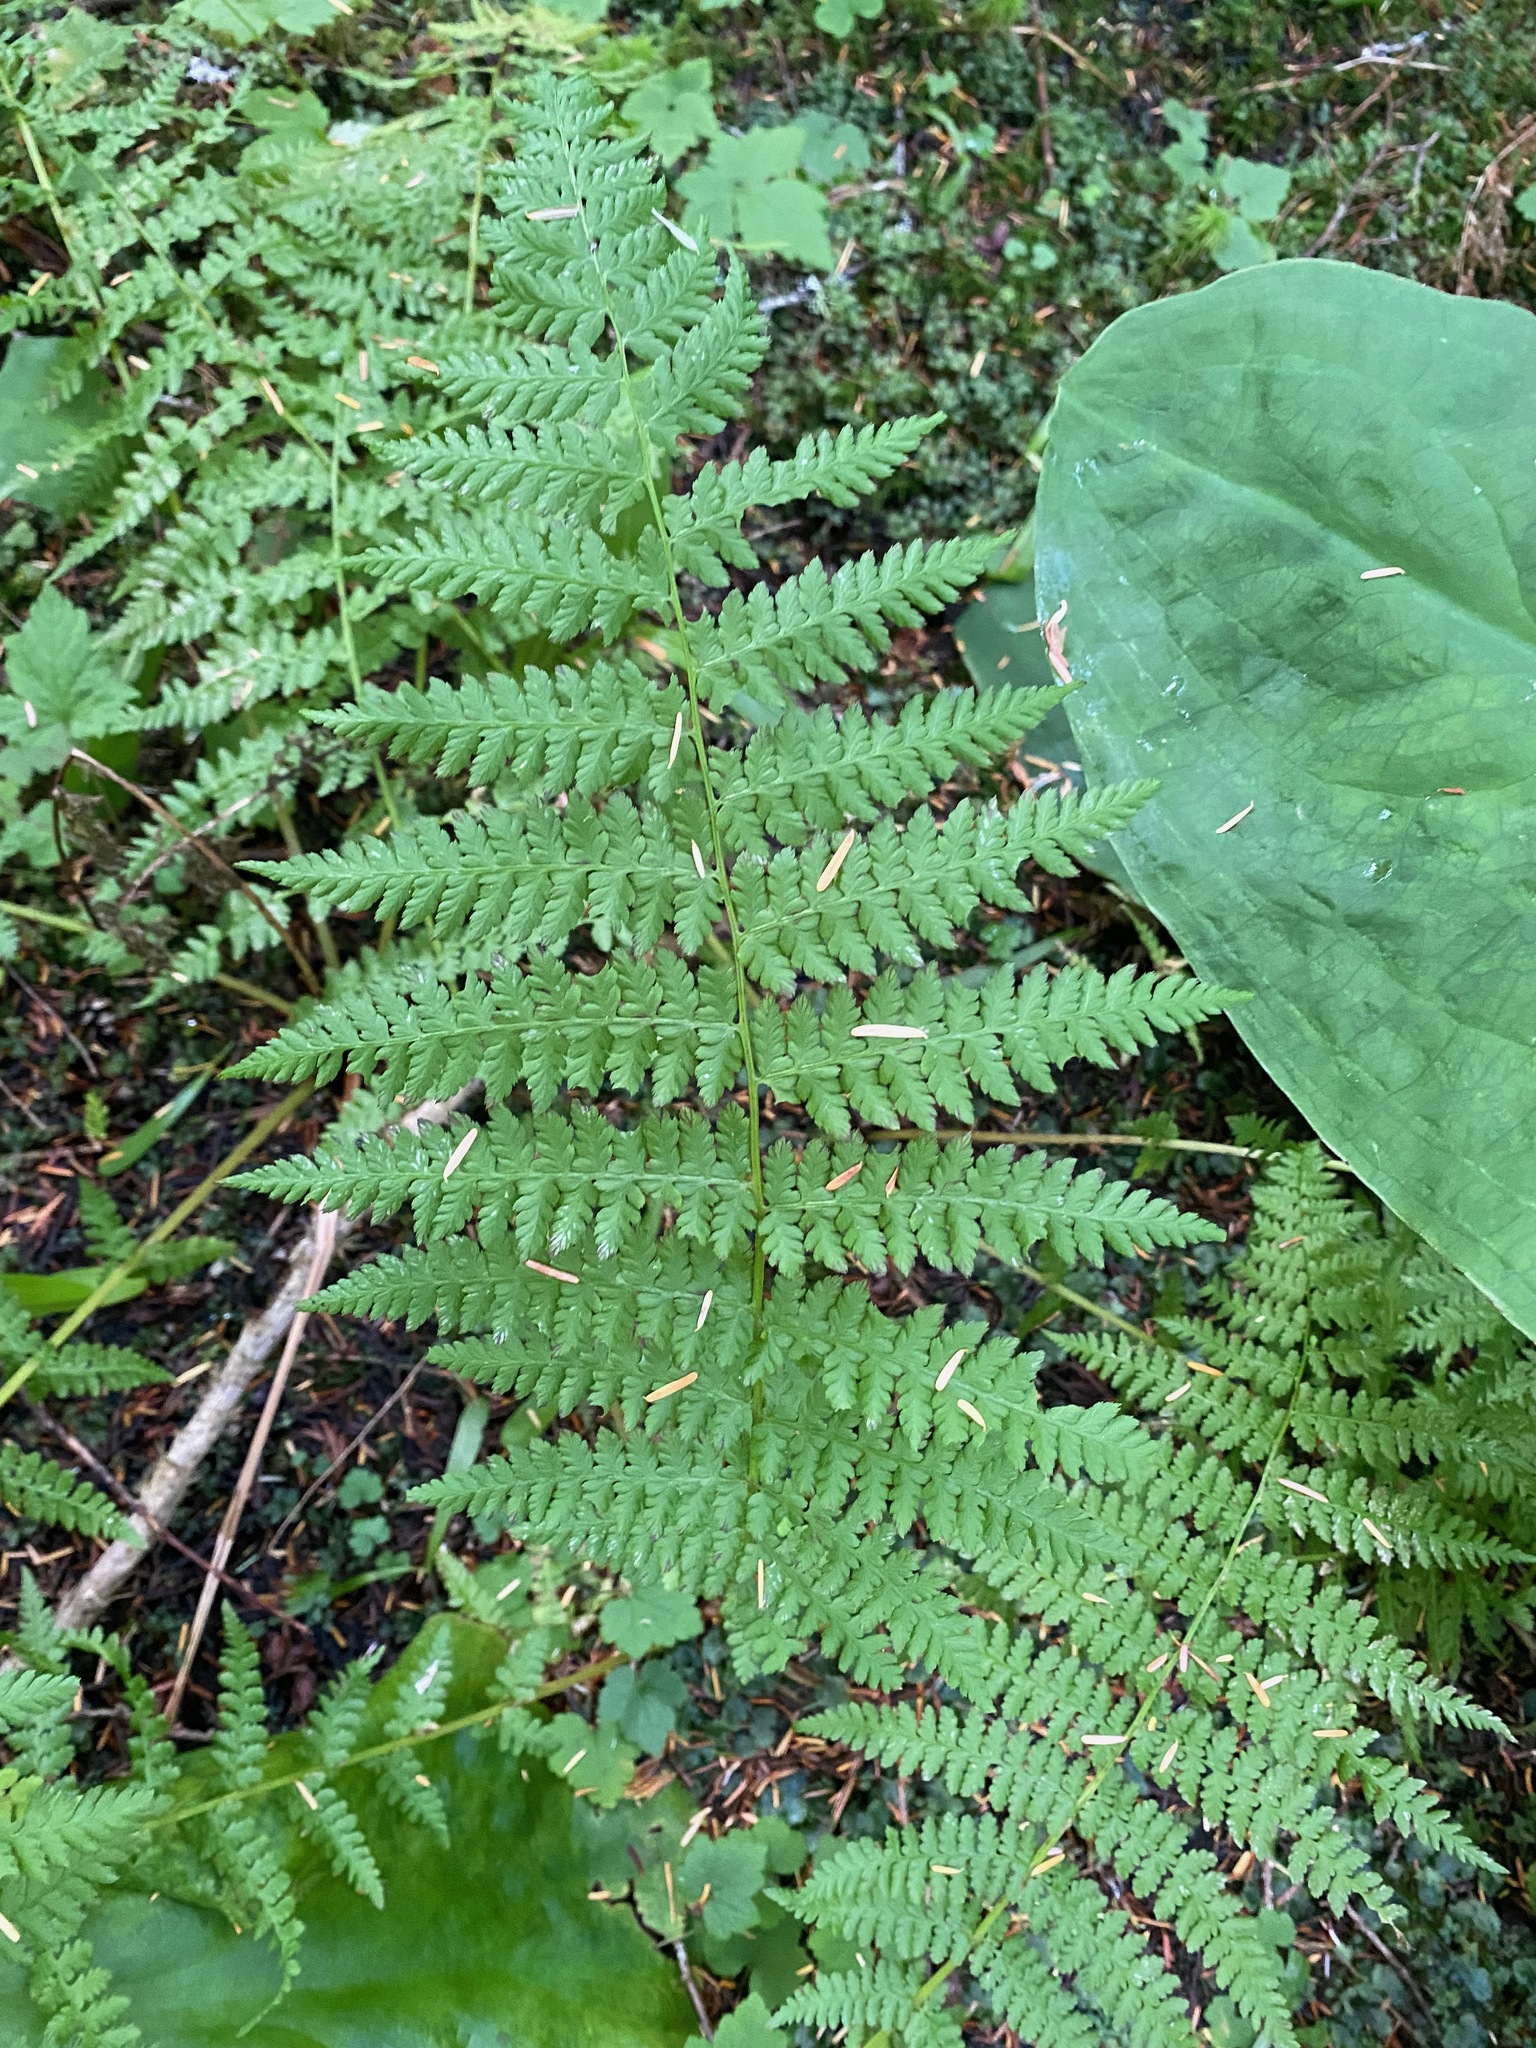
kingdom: Plantae
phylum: Tracheophyta
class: Polypodiopsida
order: Polypodiales
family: Athyriaceae
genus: Athyrium
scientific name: Athyrium filix-femina
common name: Lady fern
